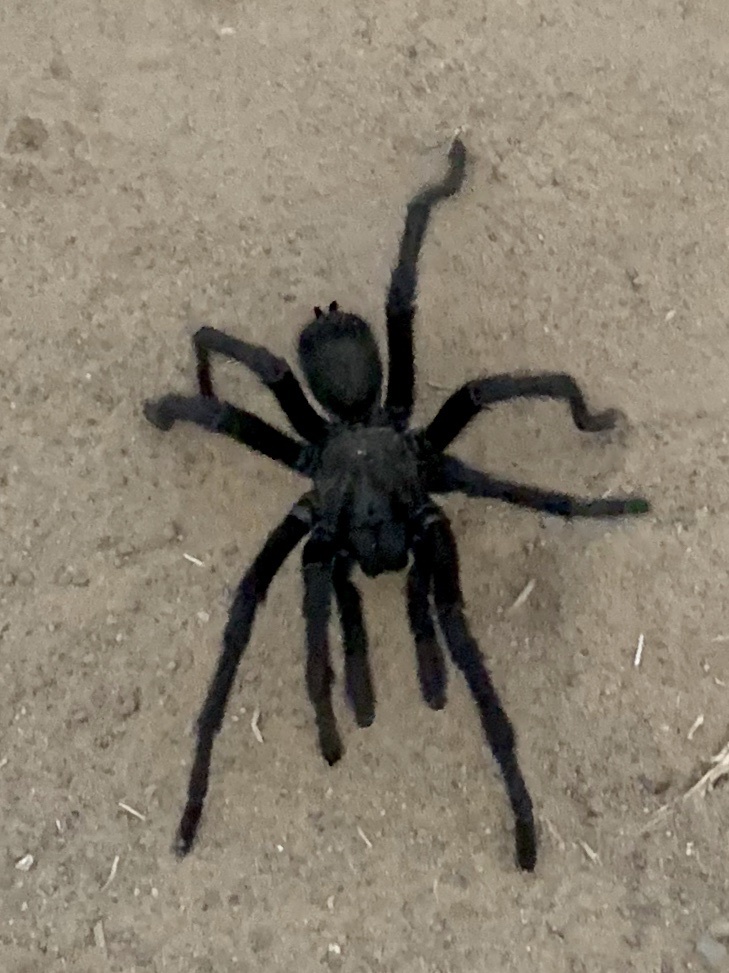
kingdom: Animalia
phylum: Arthropoda
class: Arachnida
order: Araneae
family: Theraphosidae
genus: Aphonopelma
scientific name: Aphonopelma steindachneri
